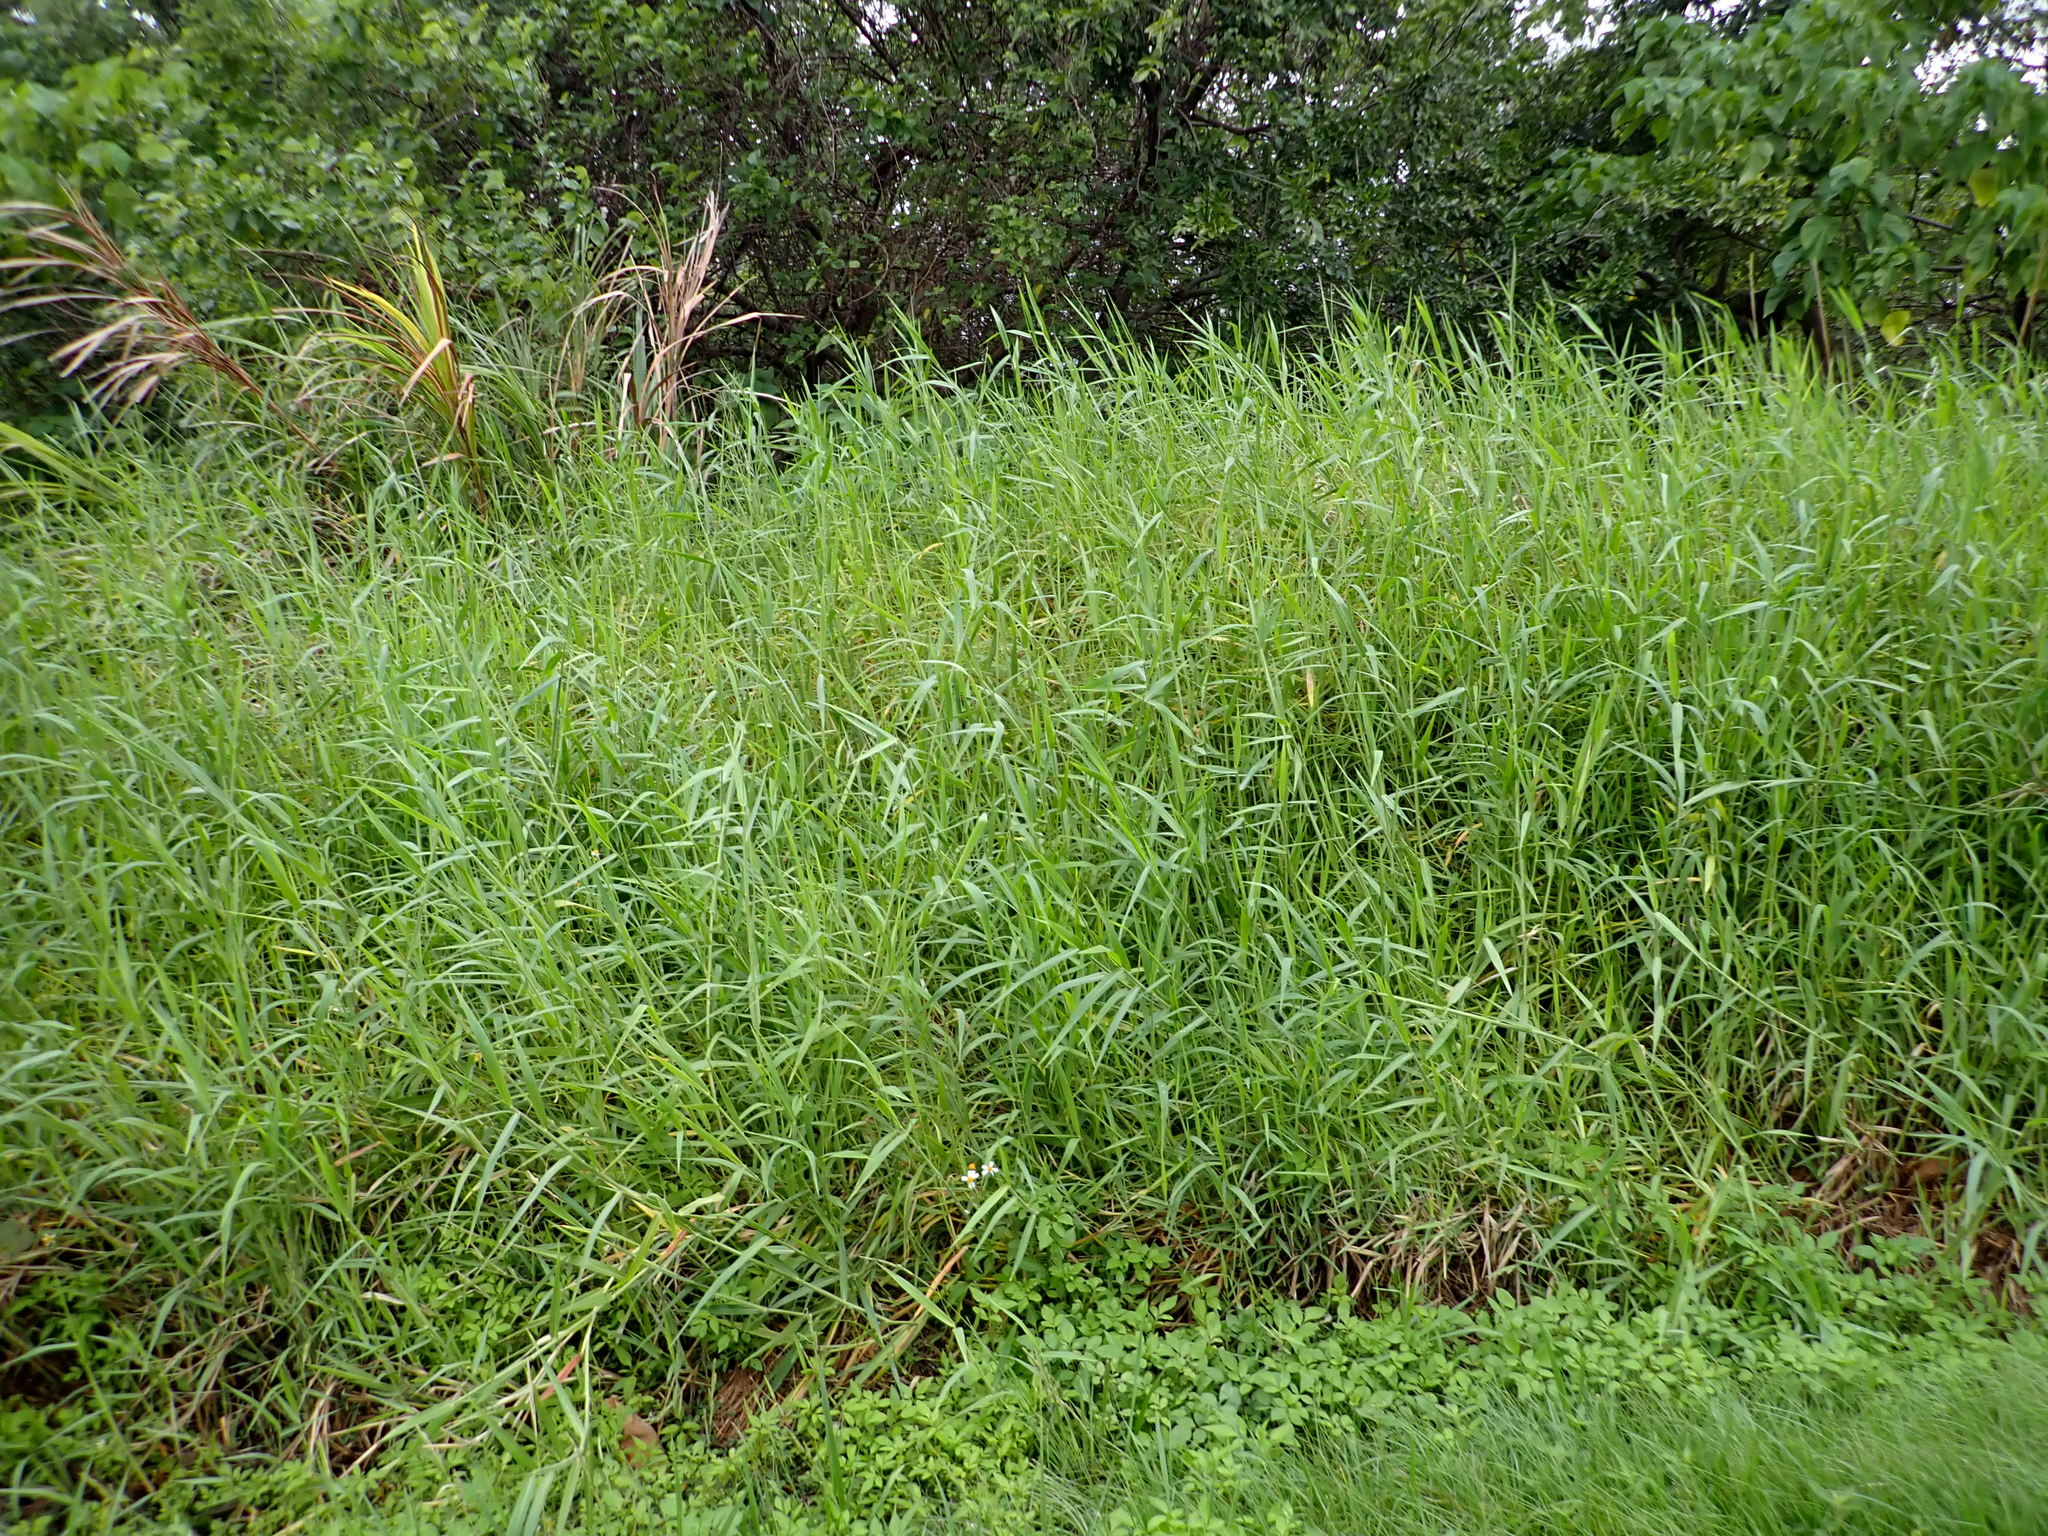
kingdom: Plantae
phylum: Tracheophyta
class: Liliopsida
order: Poales
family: Poaceae
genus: Urochloa
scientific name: Urochloa mutica
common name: Para grass
